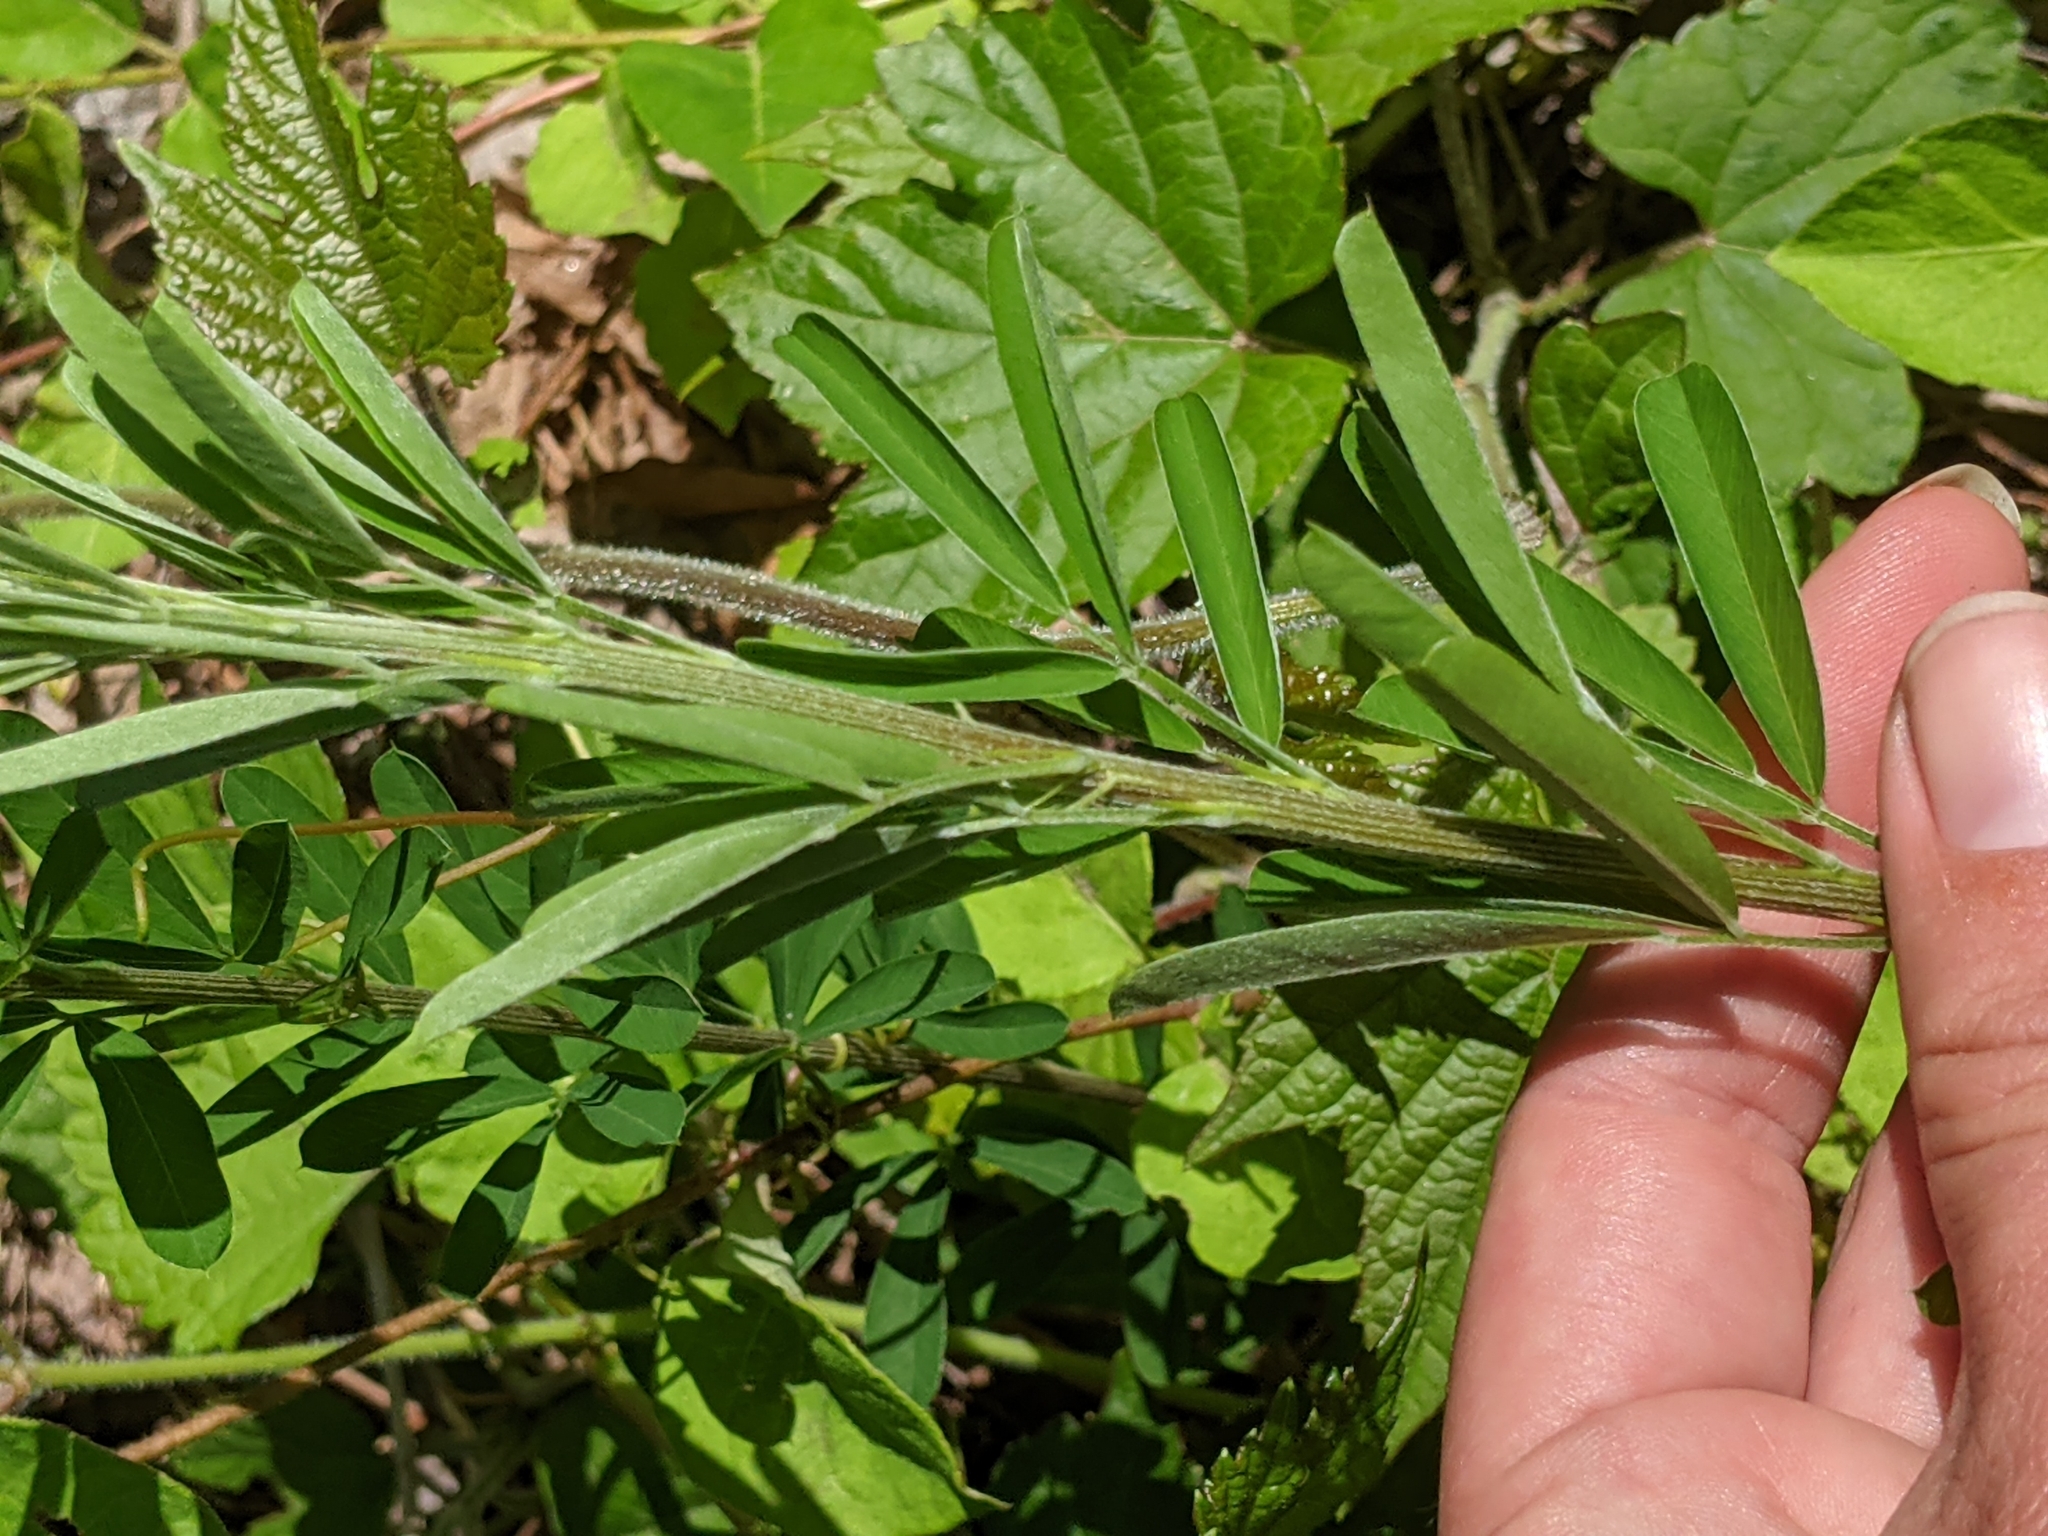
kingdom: Plantae
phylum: Tracheophyta
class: Magnoliopsida
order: Fabales
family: Fabaceae
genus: Lespedeza
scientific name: Lespedeza cuneata
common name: Chinese bush-clover
